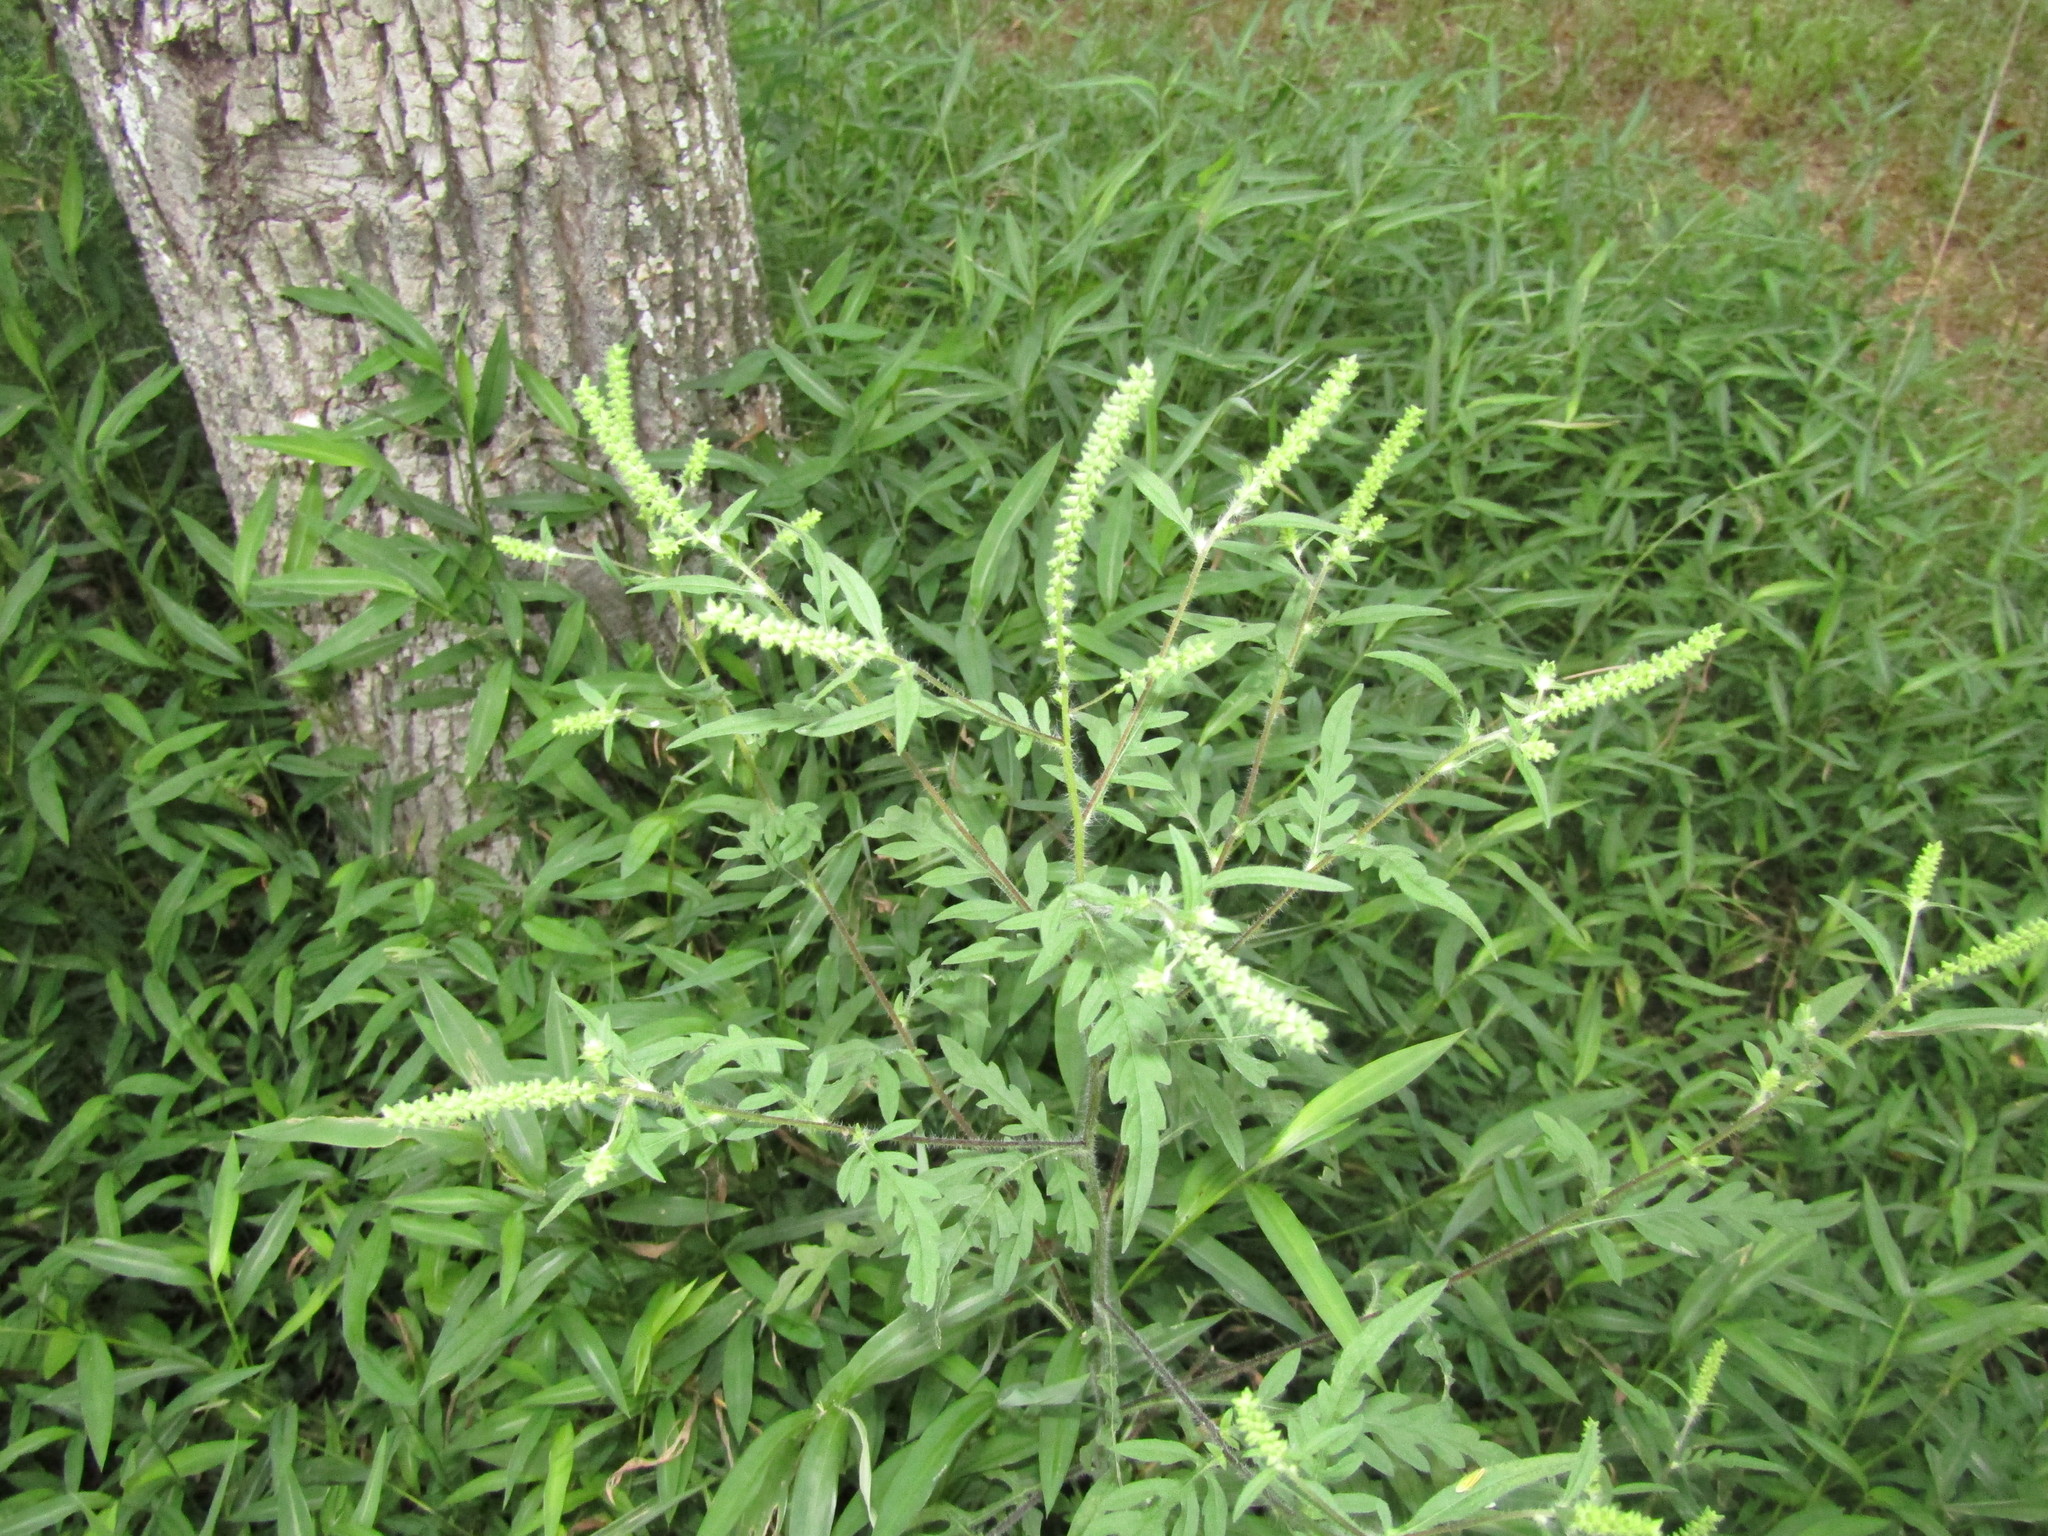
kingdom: Plantae
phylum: Tracheophyta
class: Magnoliopsida
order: Asterales
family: Asteraceae
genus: Ambrosia
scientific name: Ambrosia artemisiifolia
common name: Annual ragweed
